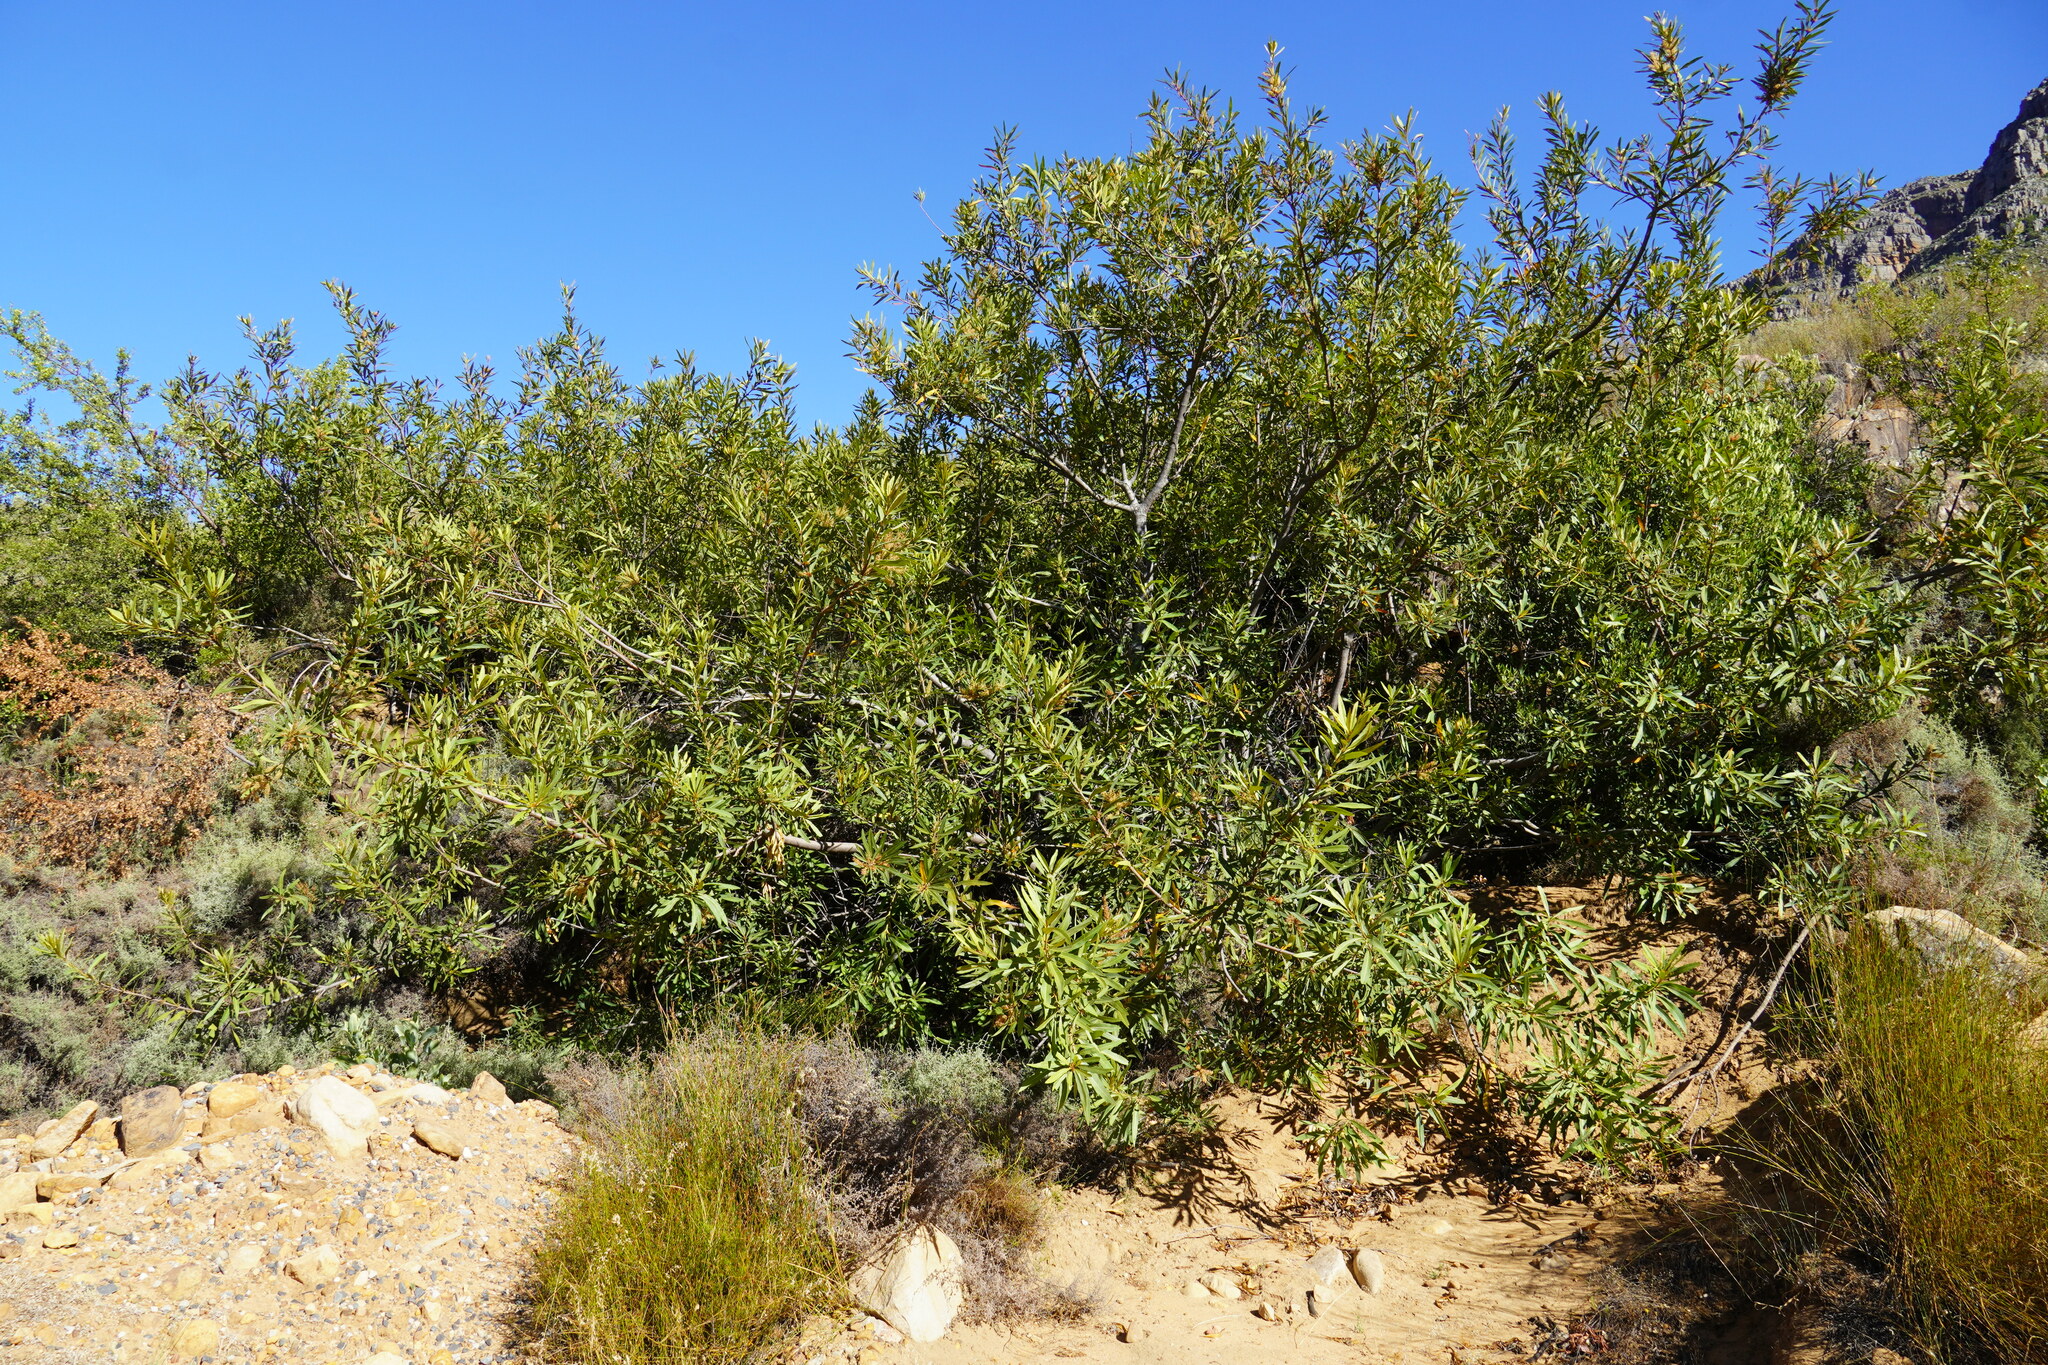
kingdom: Plantae
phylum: Tracheophyta
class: Magnoliopsida
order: Proteales
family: Proteaceae
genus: Brabejum
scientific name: Brabejum stellatifolium
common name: Wild almond
